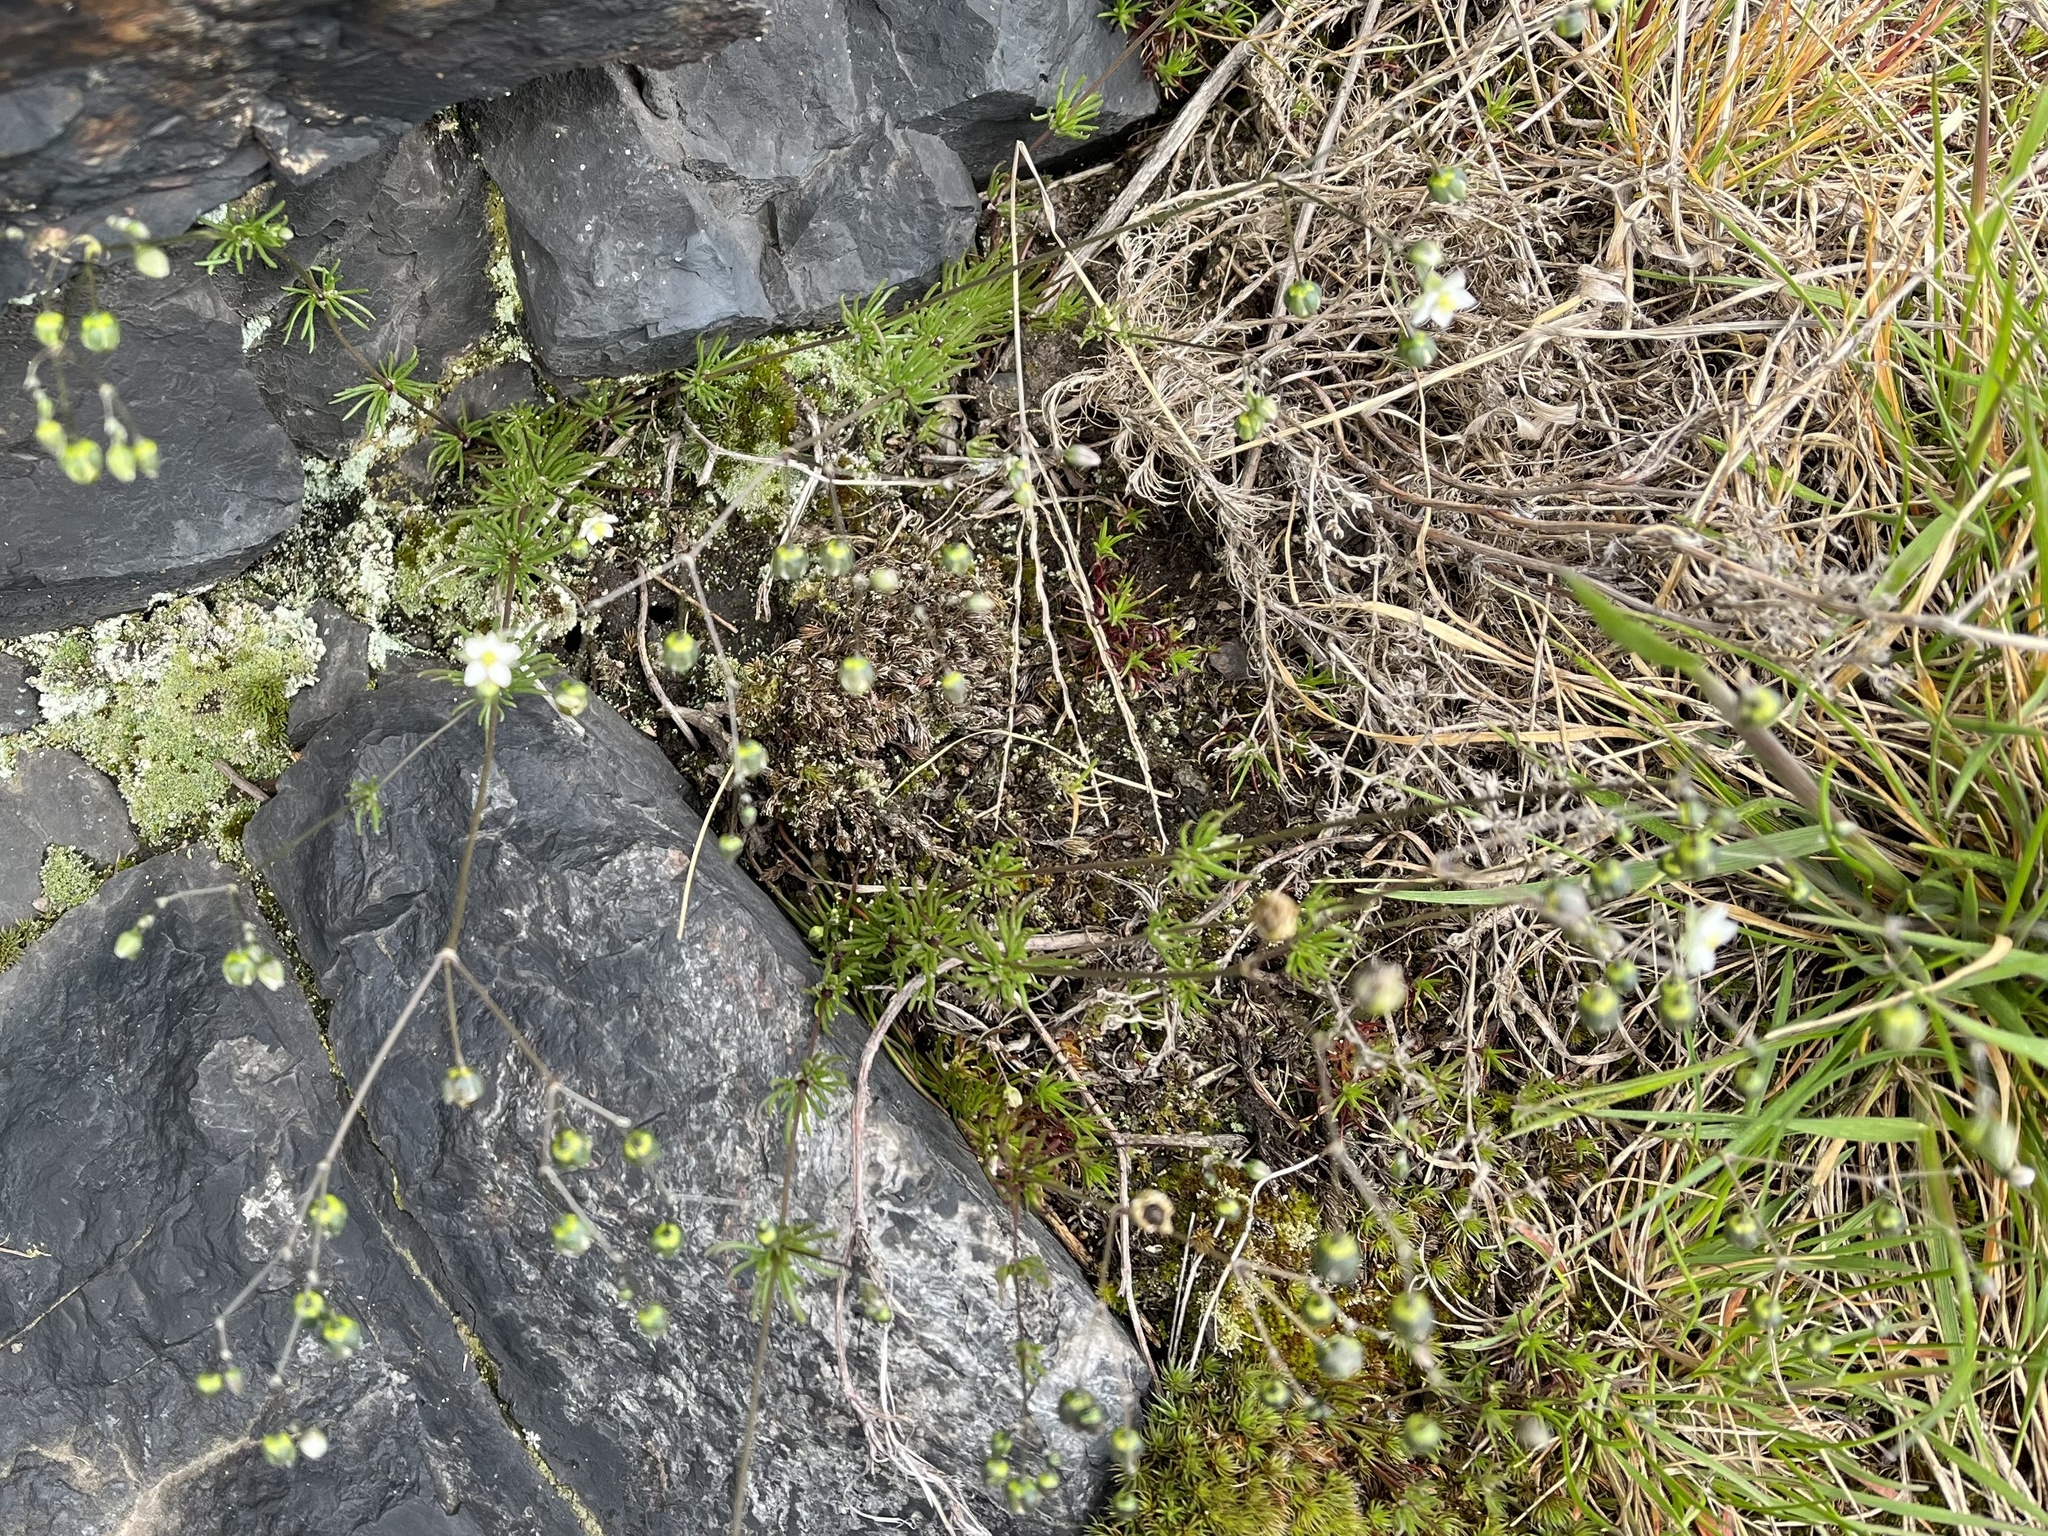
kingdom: Plantae
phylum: Tracheophyta
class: Magnoliopsida
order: Caryophyllales
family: Caryophyllaceae
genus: Spergula
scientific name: Spergula morisonii
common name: Pearlwort spurrey
